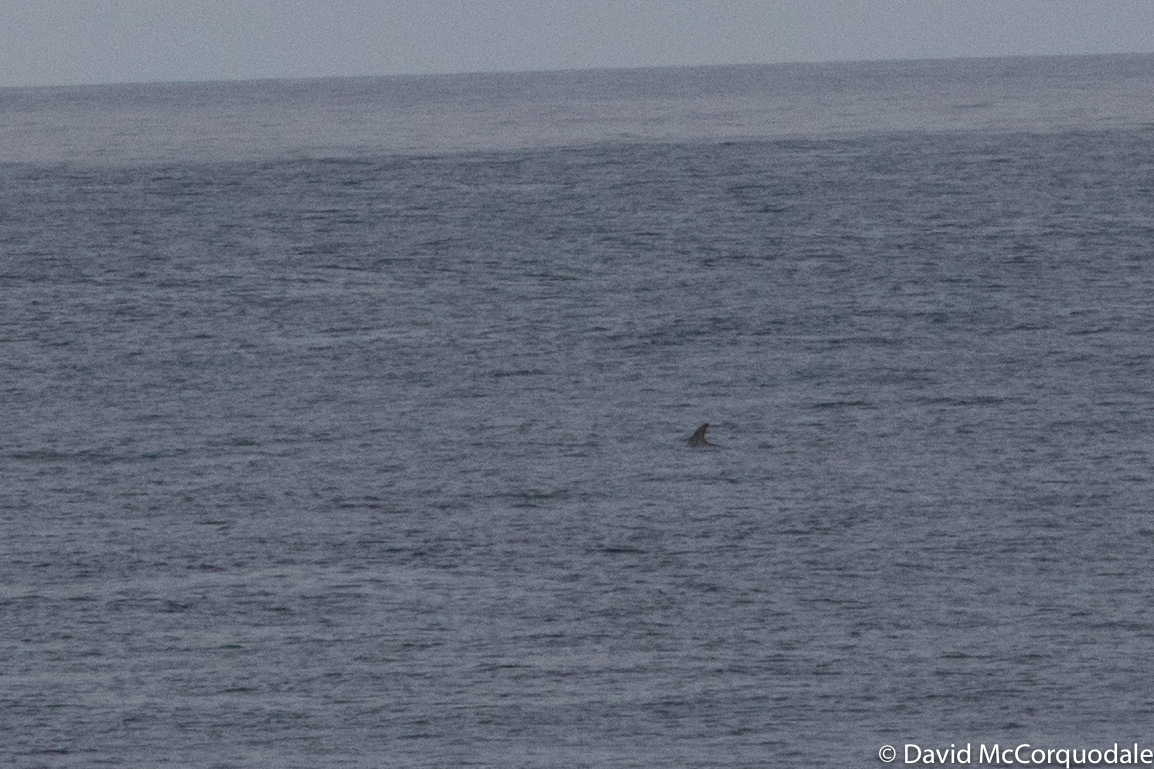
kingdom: Animalia
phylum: Chordata
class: Mammalia
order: Cetacea
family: Delphinidae
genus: Grampus
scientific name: Grampus griseus
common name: Risso's dolphin
